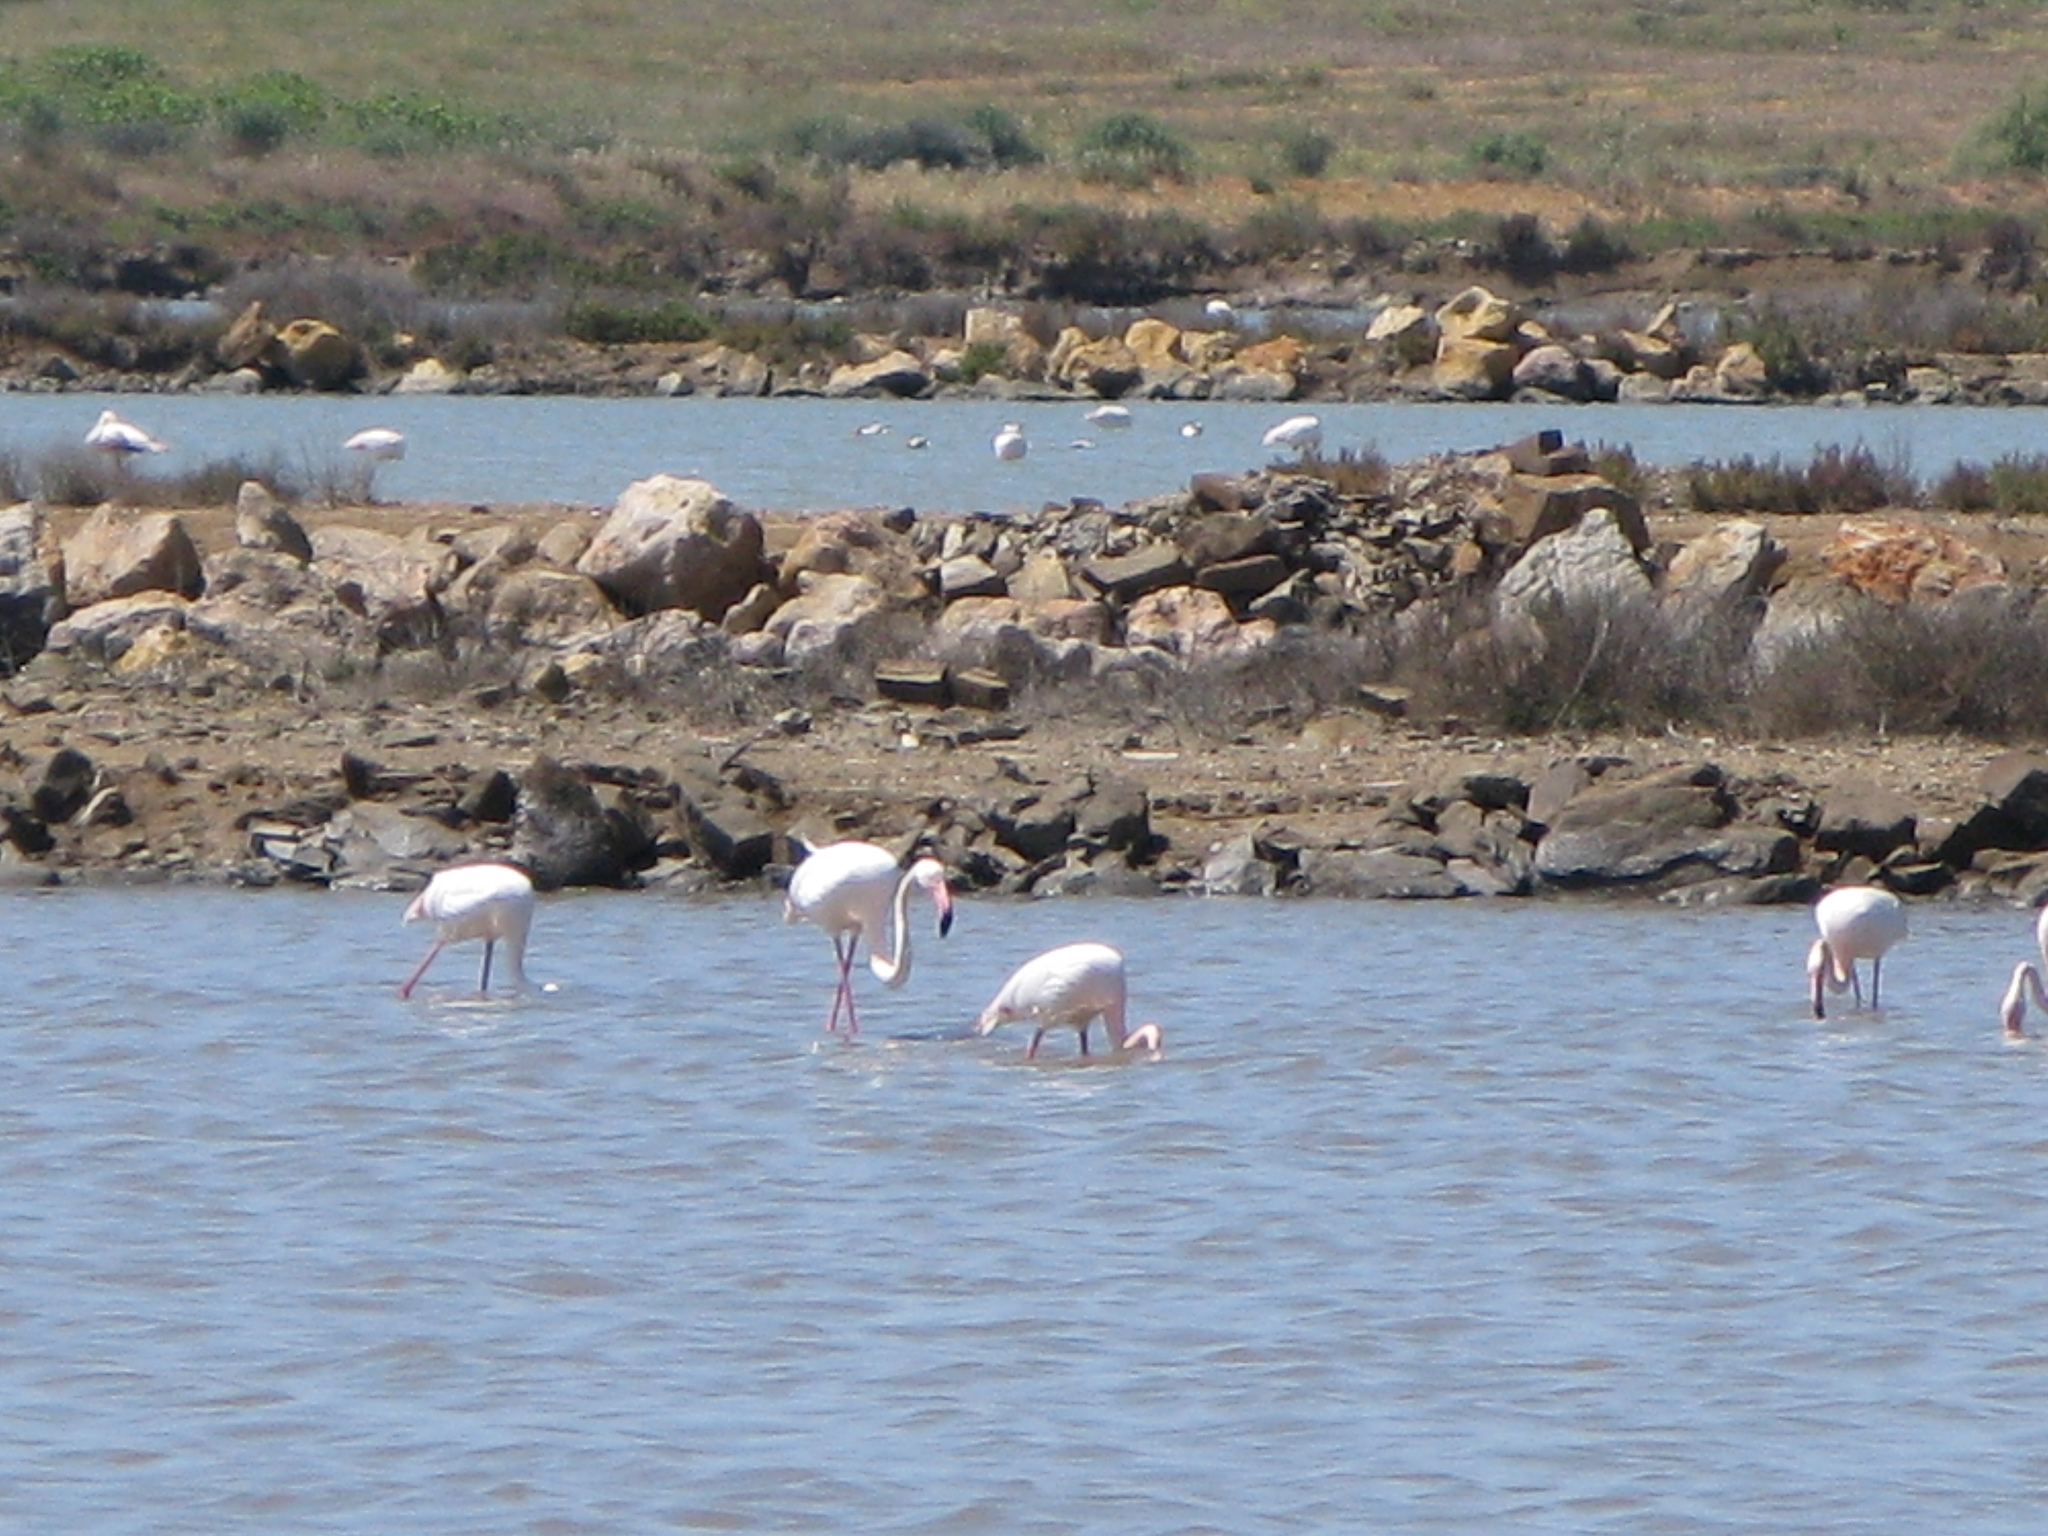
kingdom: Animalia
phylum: Chordata
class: Aves
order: Phoenicopteriformes
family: Phoenicopteridae
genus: Phoenicopterus
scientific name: Phoenicopterus roseus
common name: Greater flamingo
